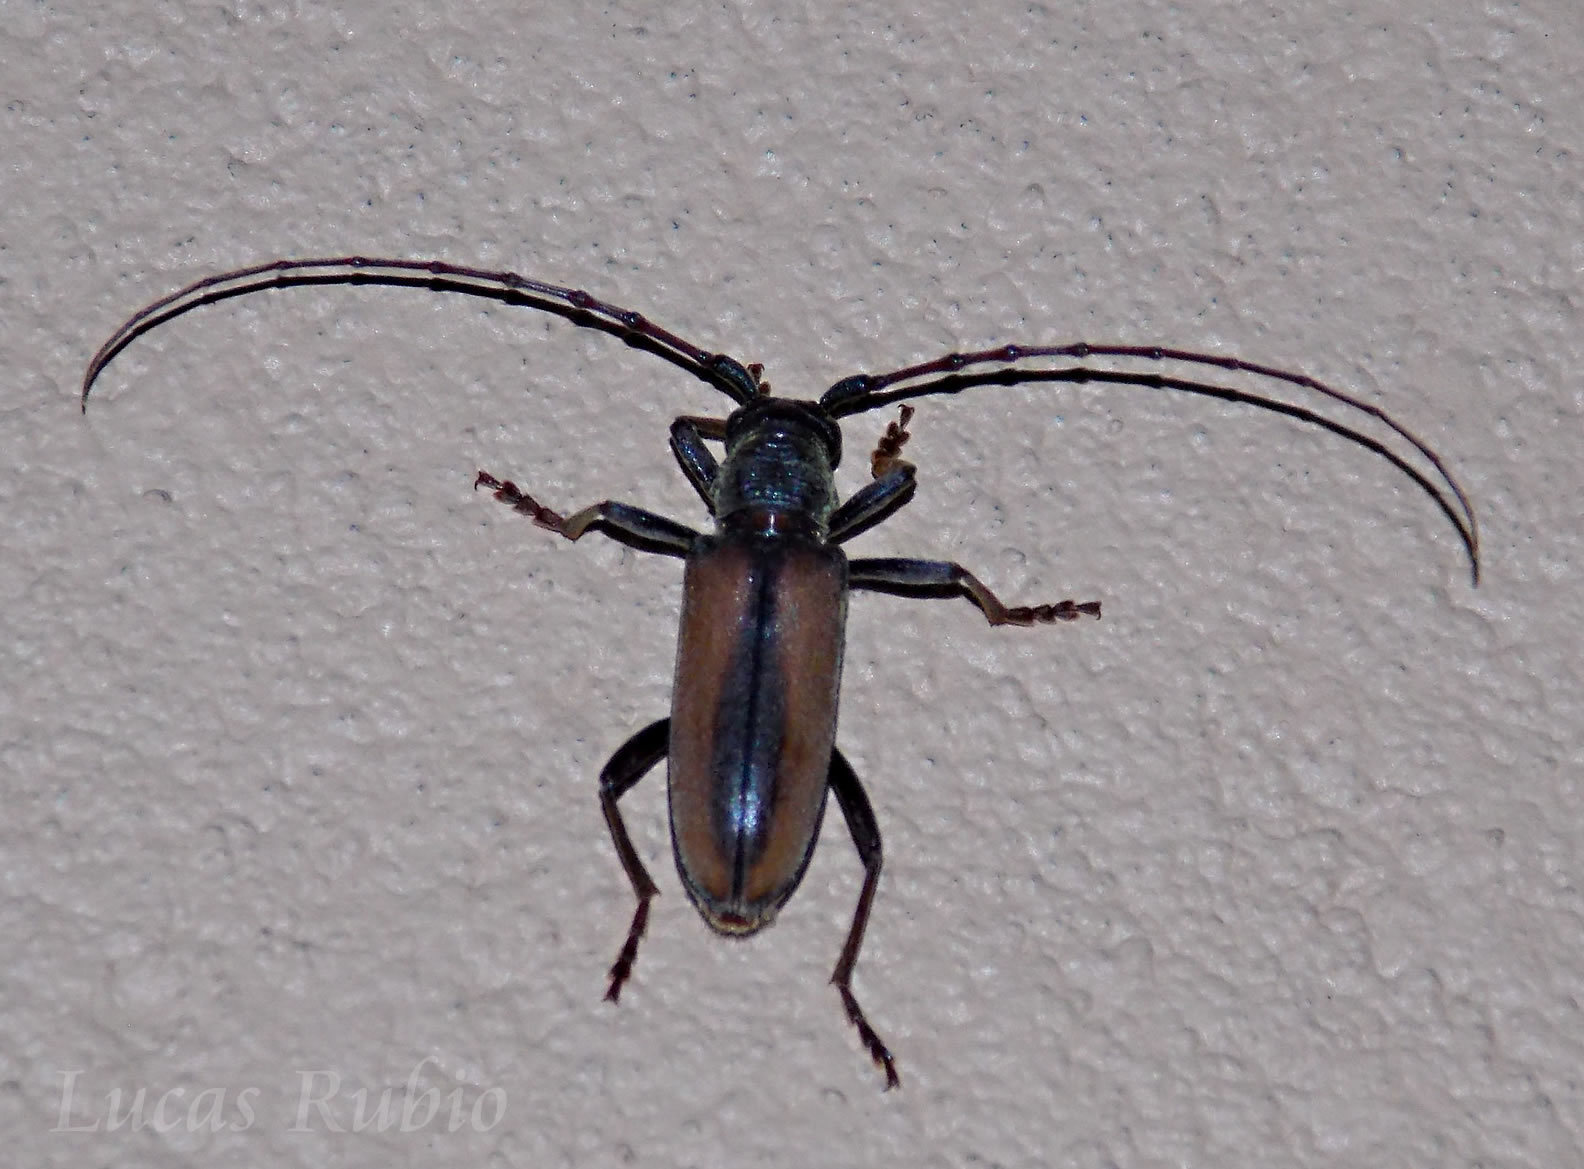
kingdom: Animalia
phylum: Arthropoda
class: Insecta
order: Coleoptera
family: Cerambycidae
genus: Plocaederus
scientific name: Plocaederus pactor
